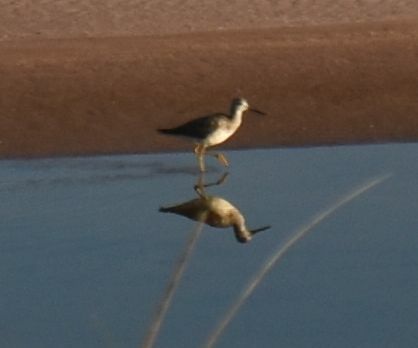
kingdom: Animalia
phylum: Chordata
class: Aves
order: Charadriiformes
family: Scolopacidae
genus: Tringa
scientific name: Tringa melanoleuca
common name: Greater yellowlegs
